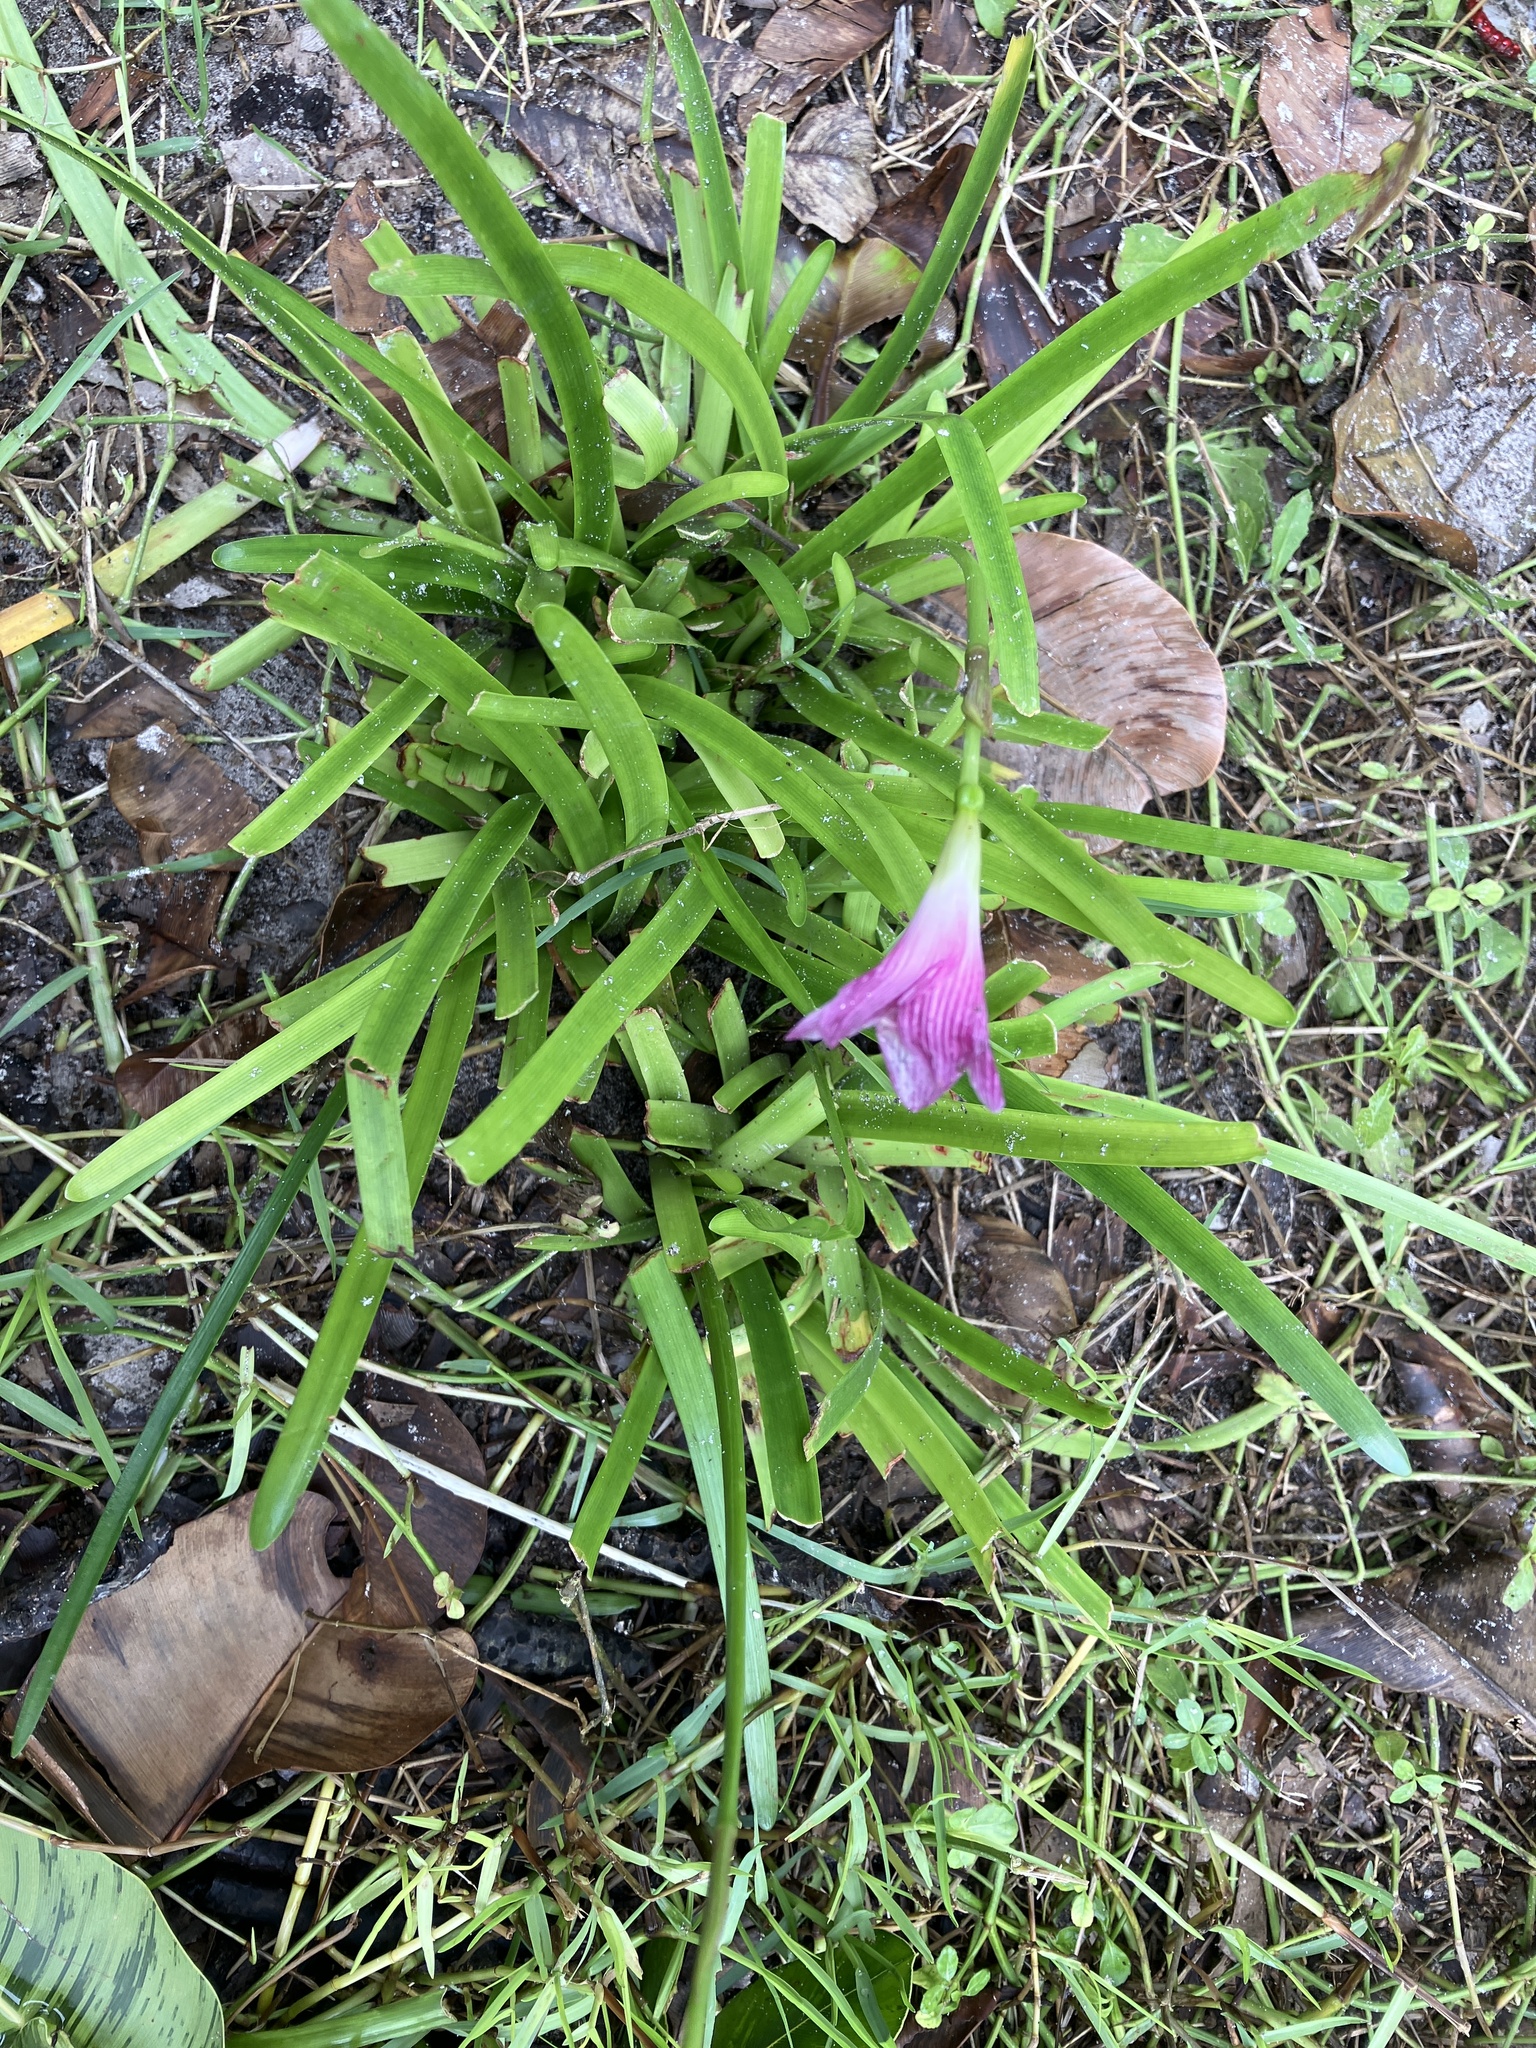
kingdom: Plantae
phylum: Tracheophyta
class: Liliopsida
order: Asparagales
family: Amaryllidaceae
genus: Zephyranthes
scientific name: Zephyranthes rosea
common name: Cuban zephyrlily
